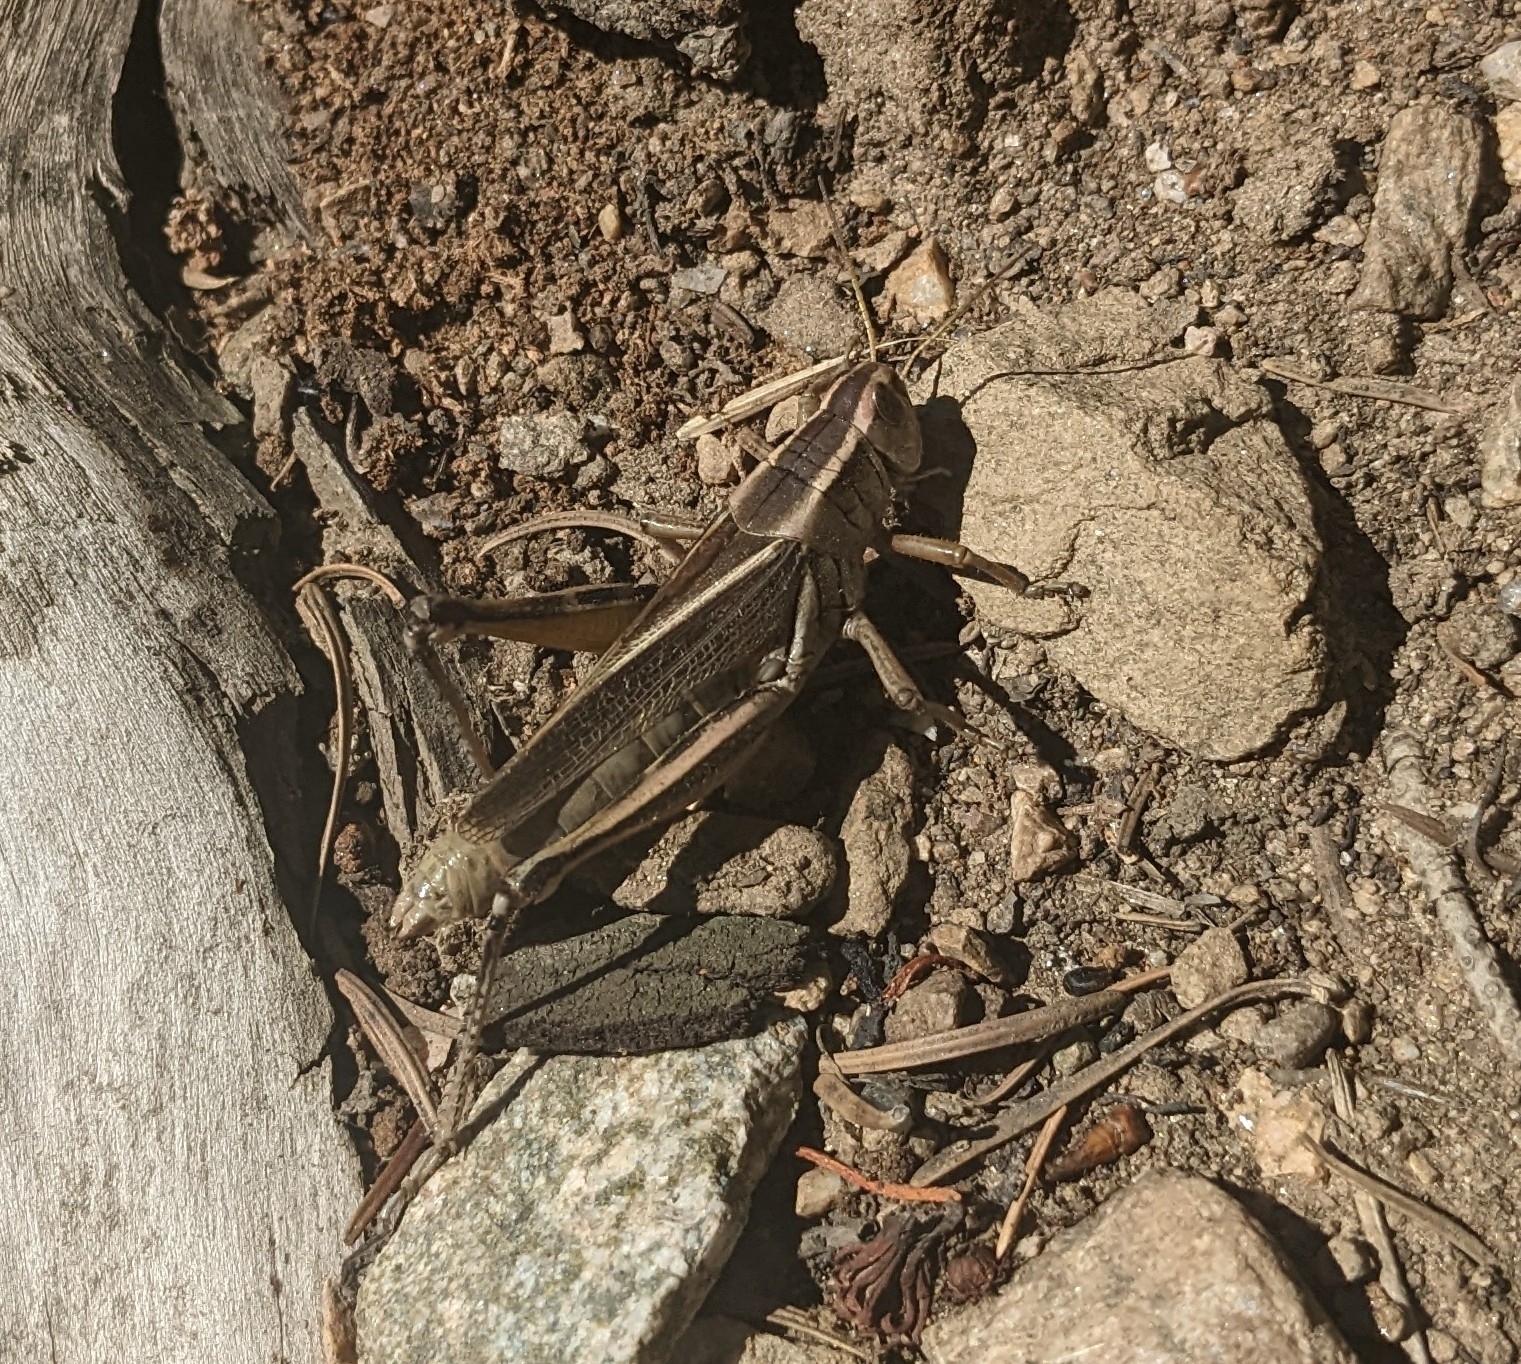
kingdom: Animalia
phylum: Arthropoda
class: Insecta
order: Orthoptera
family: Acrididae
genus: Melanoplus
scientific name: Melanoplus bivittatus
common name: Two-striped grasshopper
